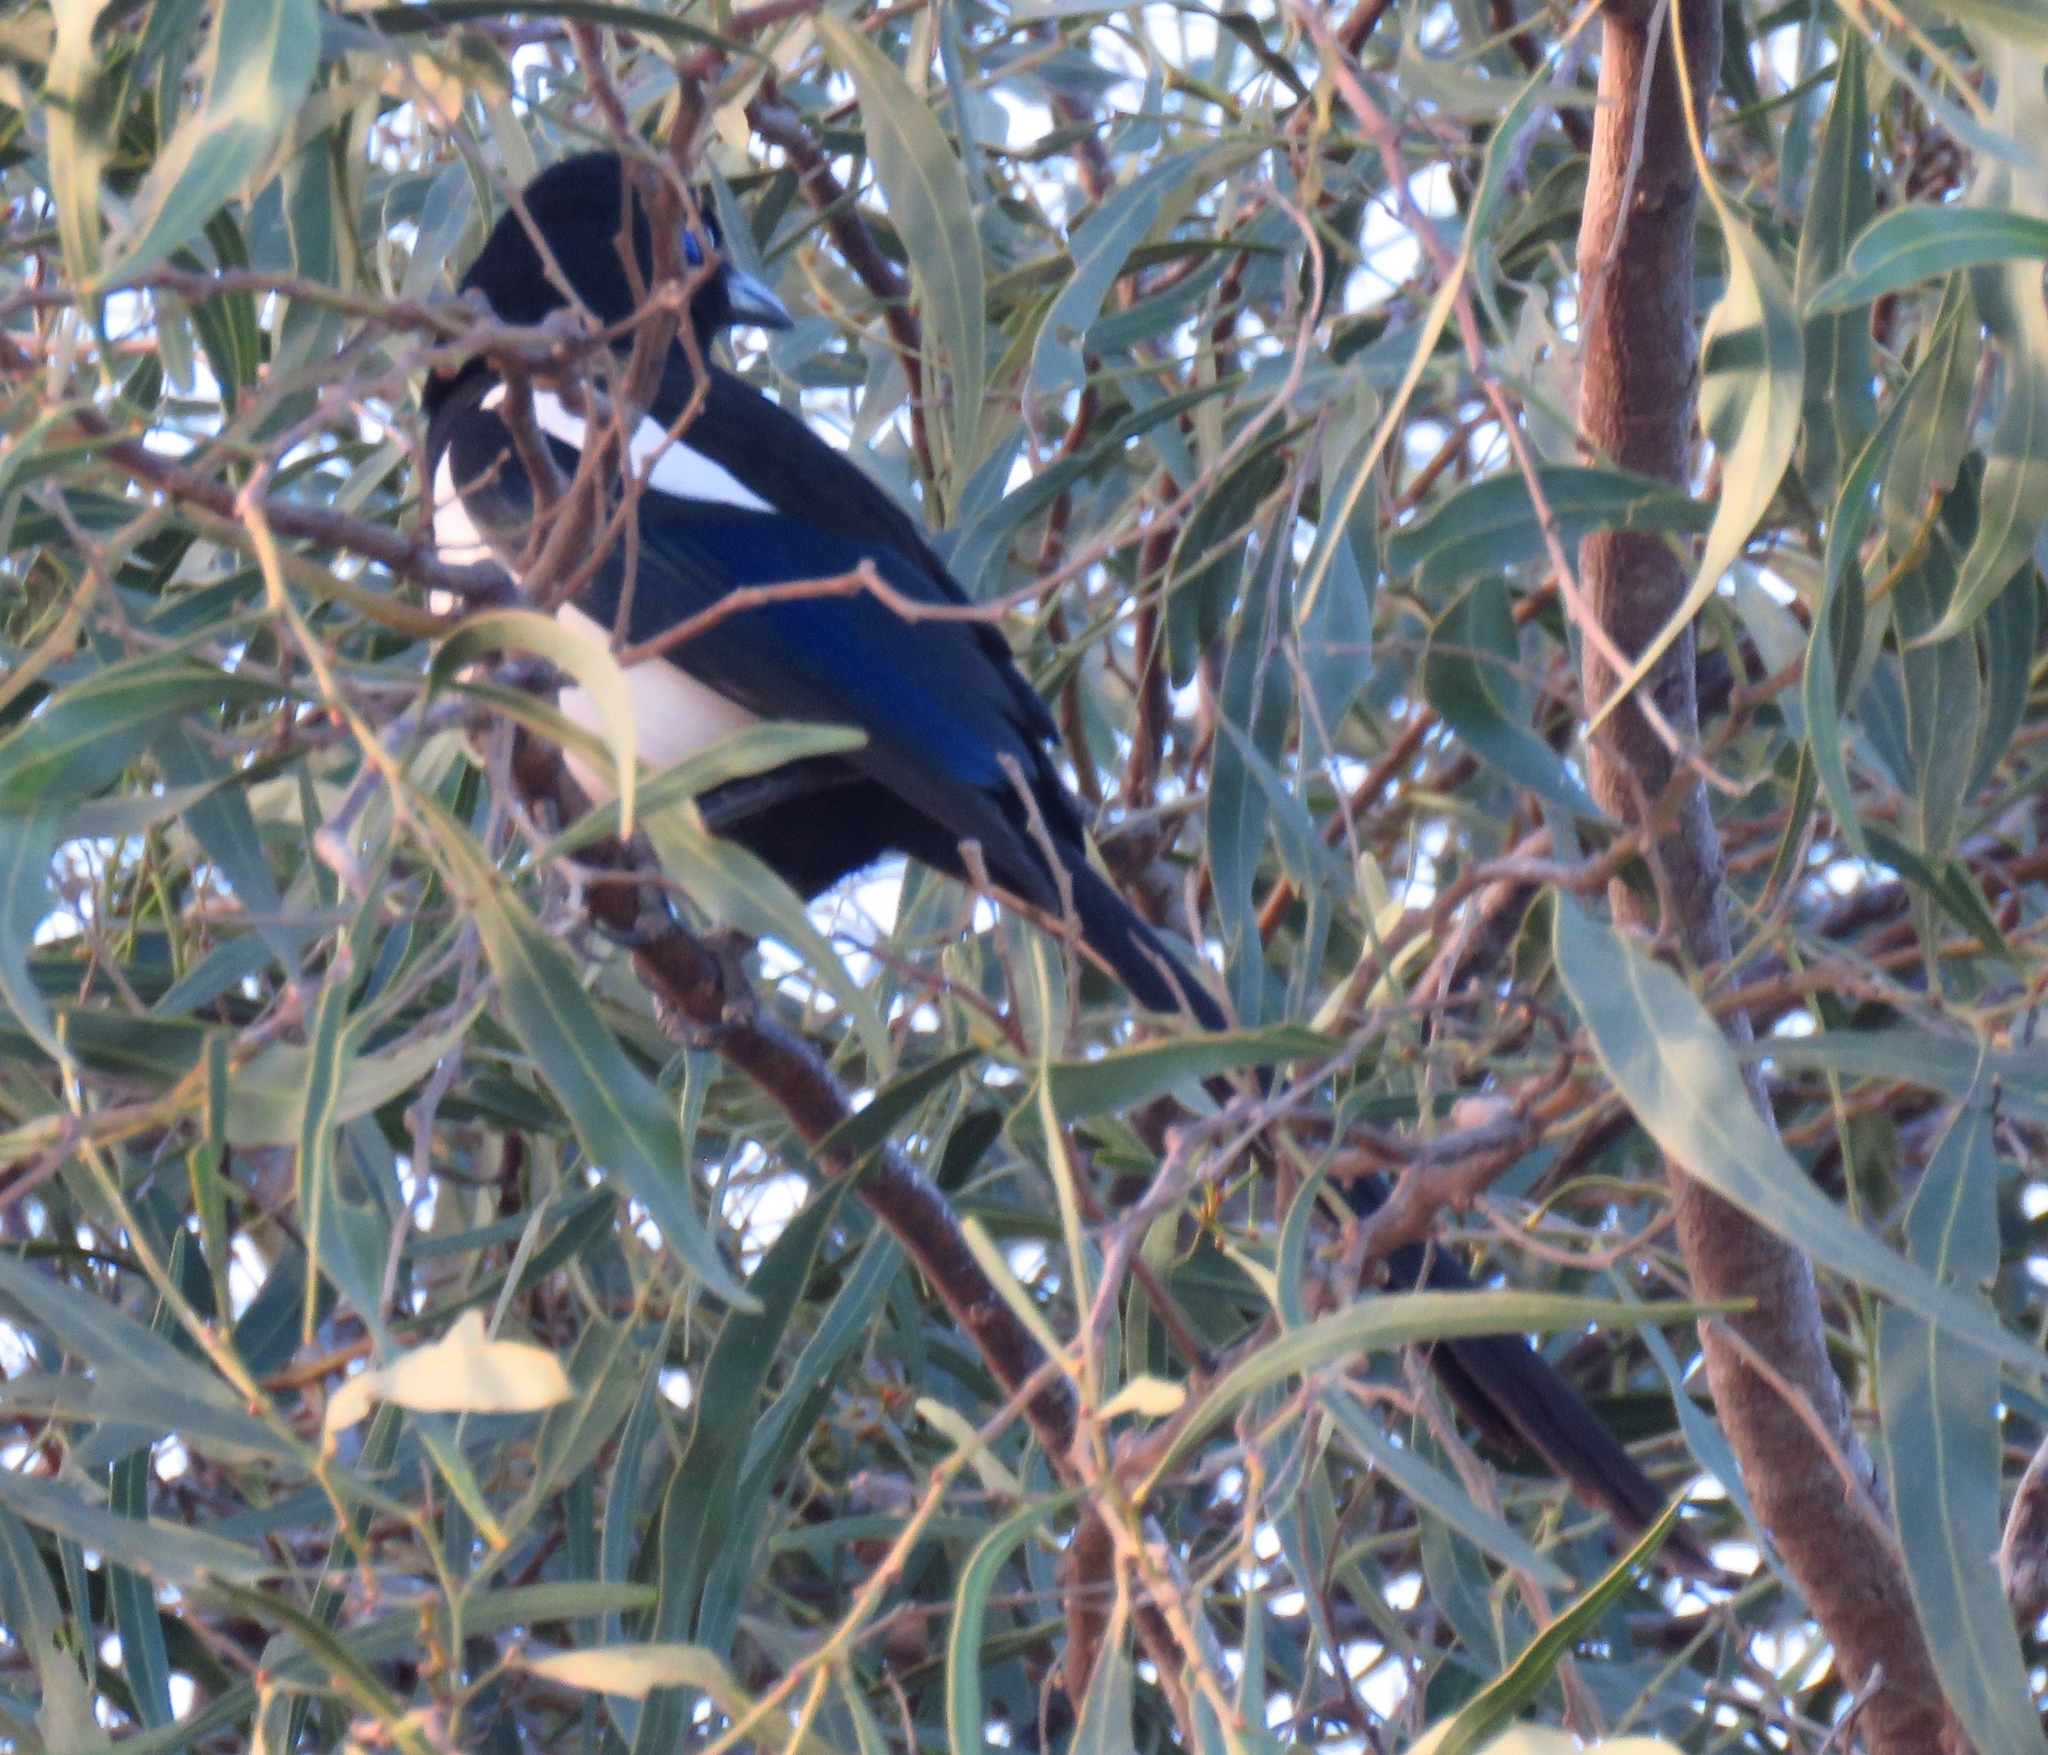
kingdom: Animalia
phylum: Chordata
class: Aves
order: Passeriformes
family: Corvidae
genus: Pica
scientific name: Pica mauritanica
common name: Maghreb magpie
